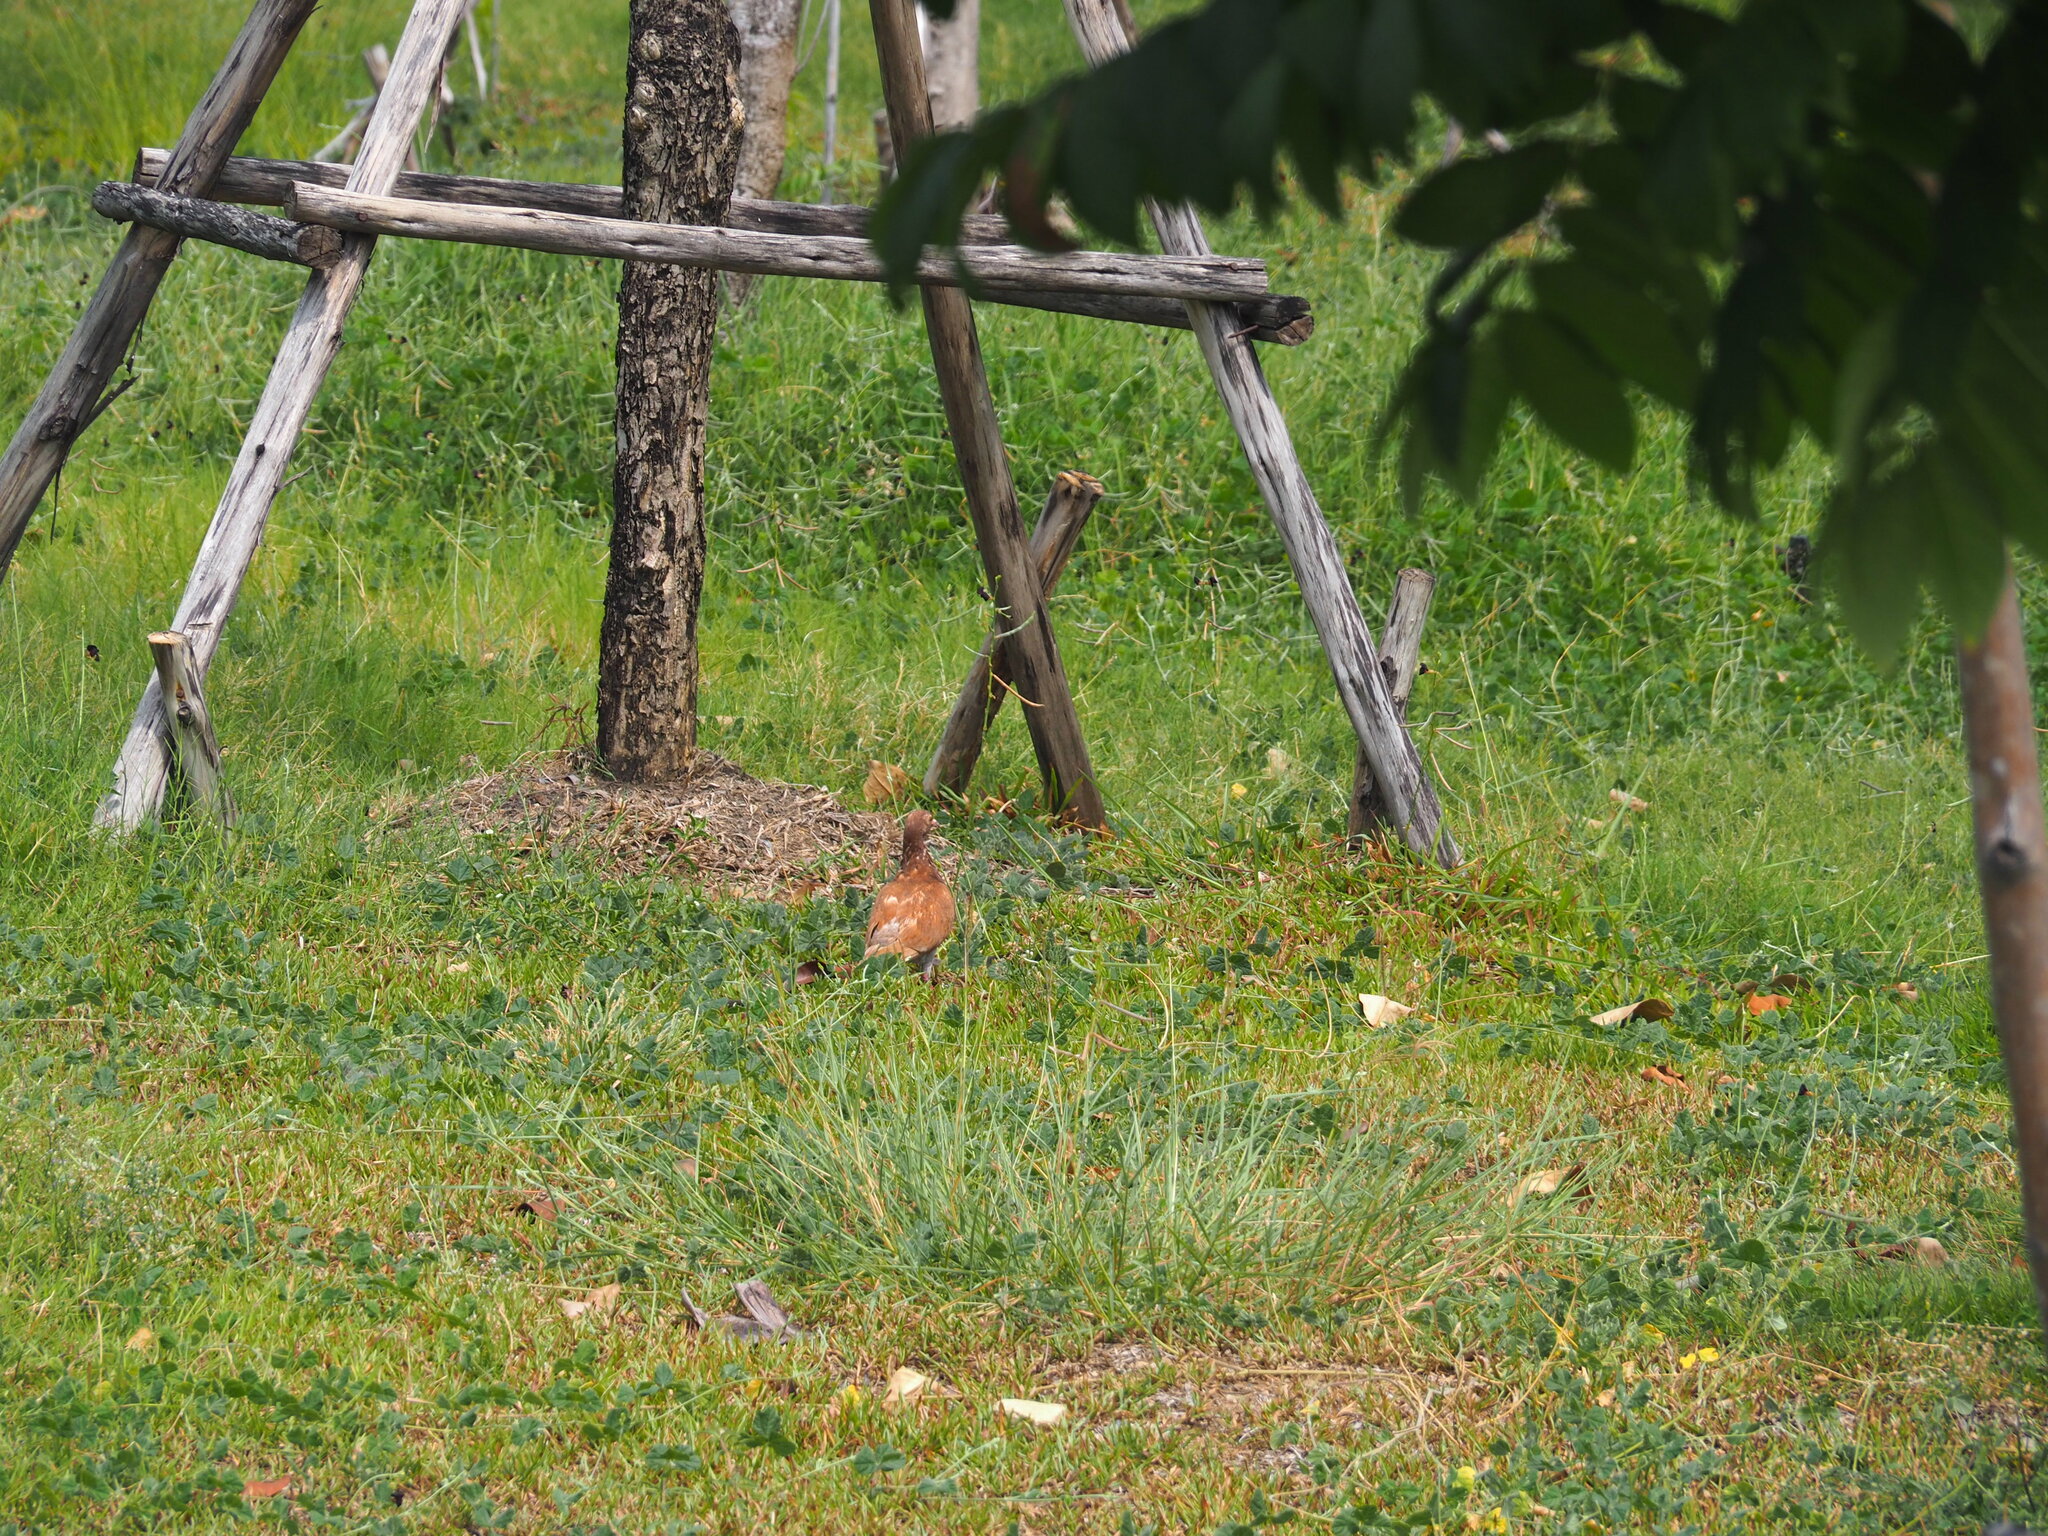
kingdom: Animalia
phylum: Chordata
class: Aves
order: Columbiformes
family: Columbidae
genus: Columba
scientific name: Columba livia
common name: Rock pigeon
